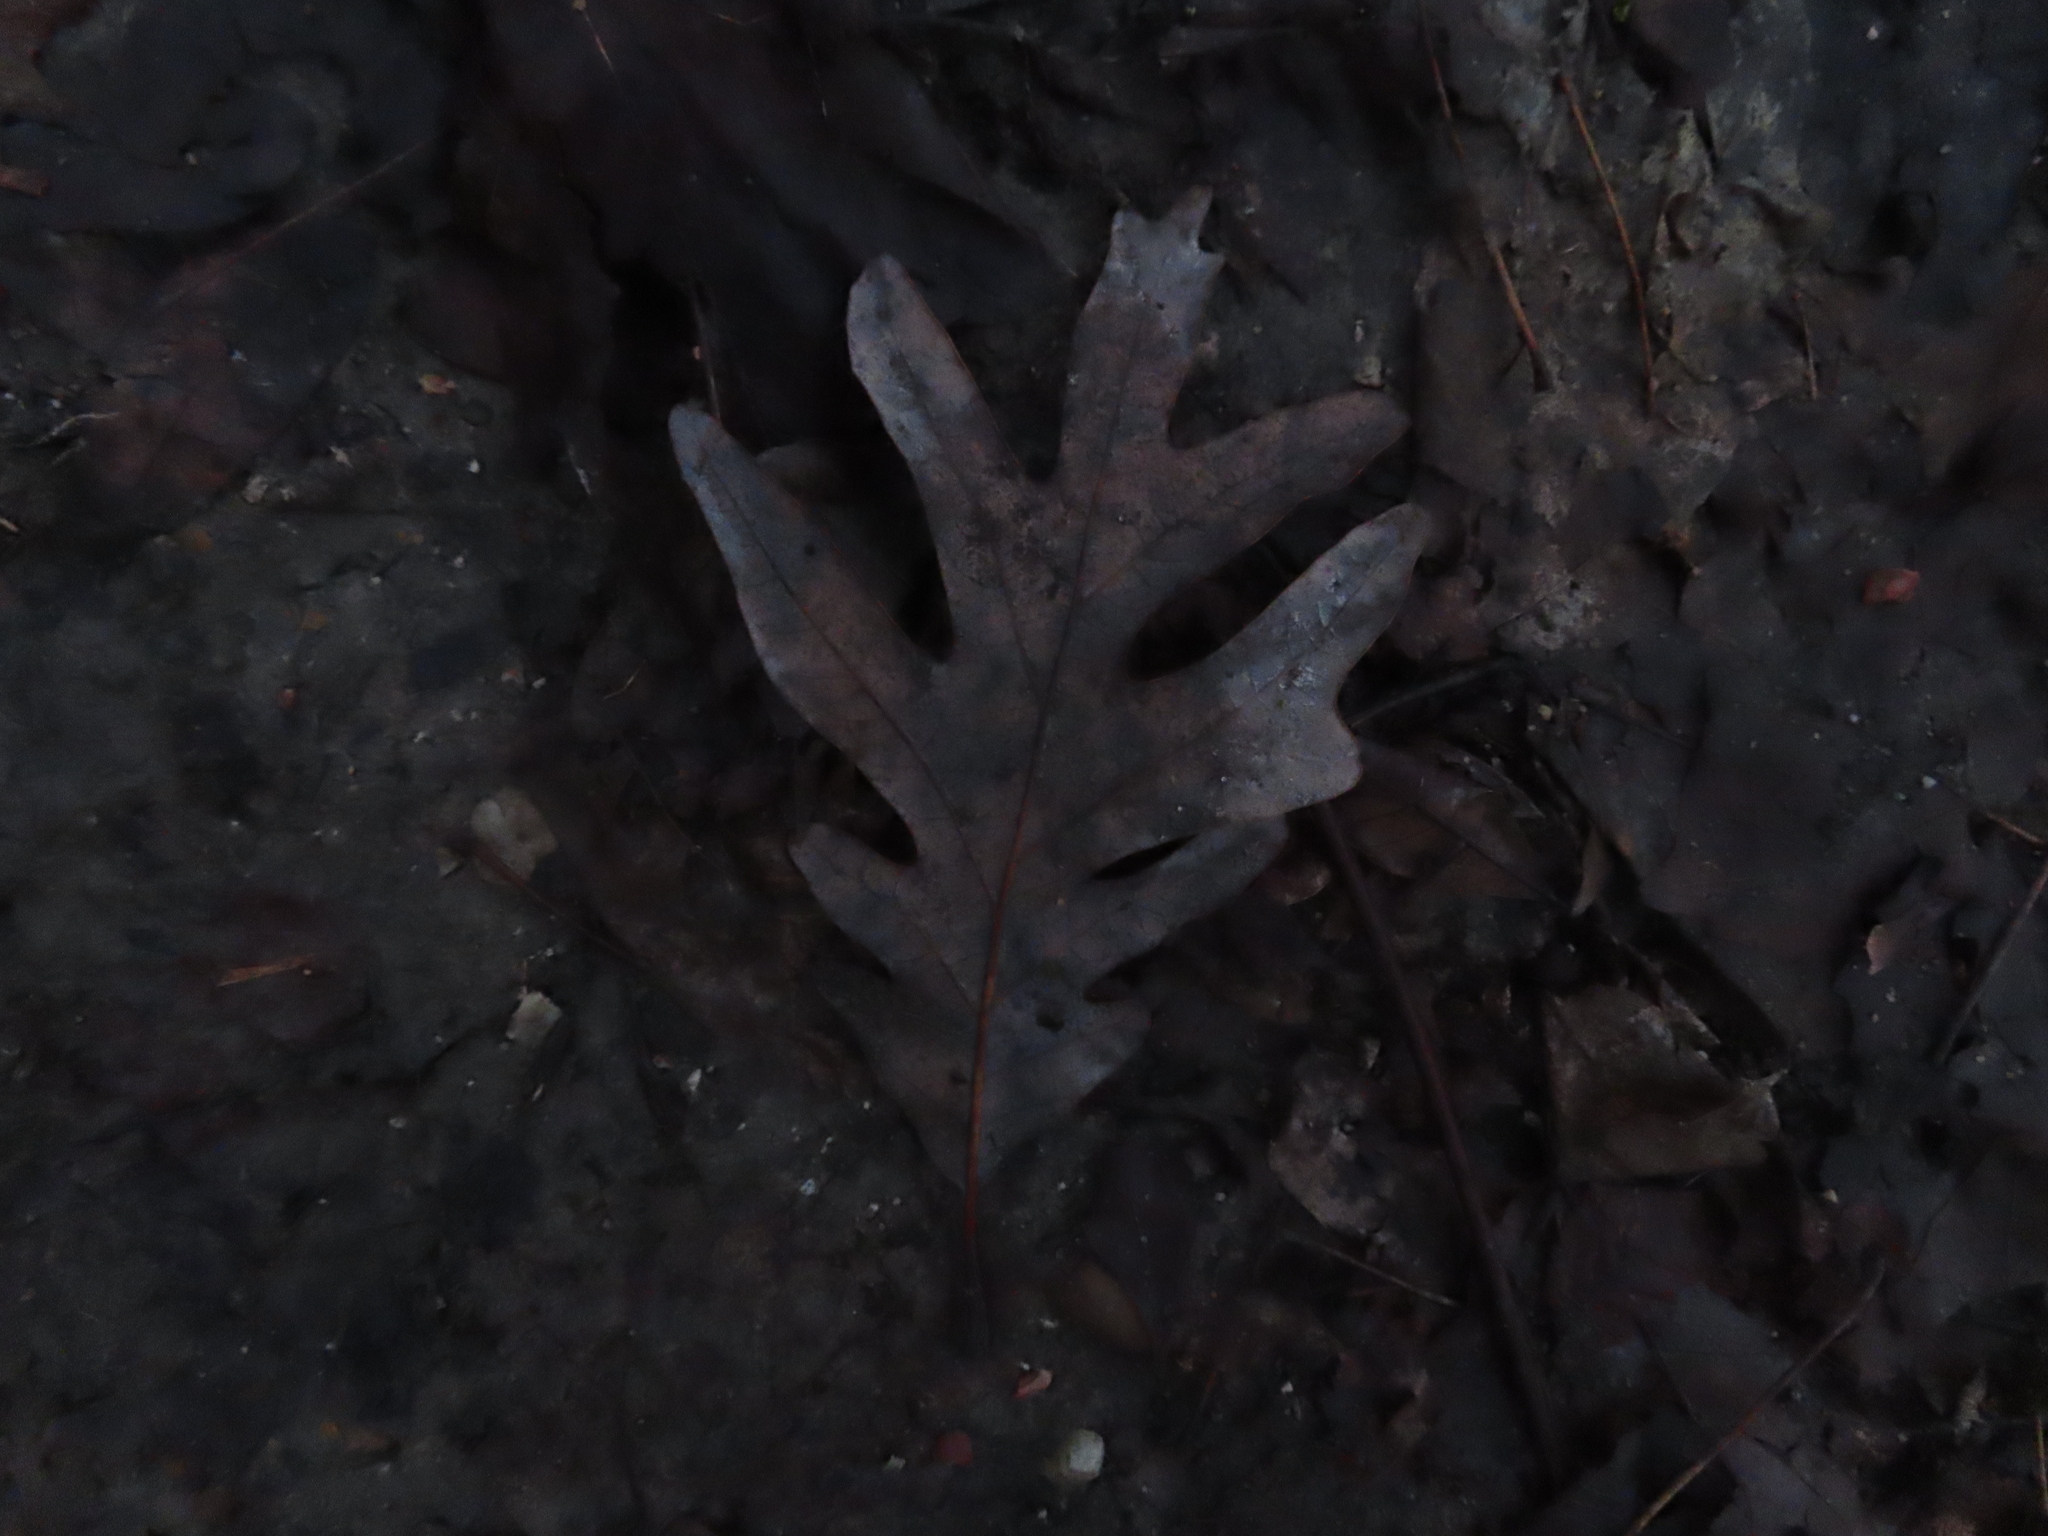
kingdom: Plantae
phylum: Tracheophyta
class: Magnoliopsida
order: Fagales
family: Fagaceae
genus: Quercus
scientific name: Quercus alba
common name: White oak
